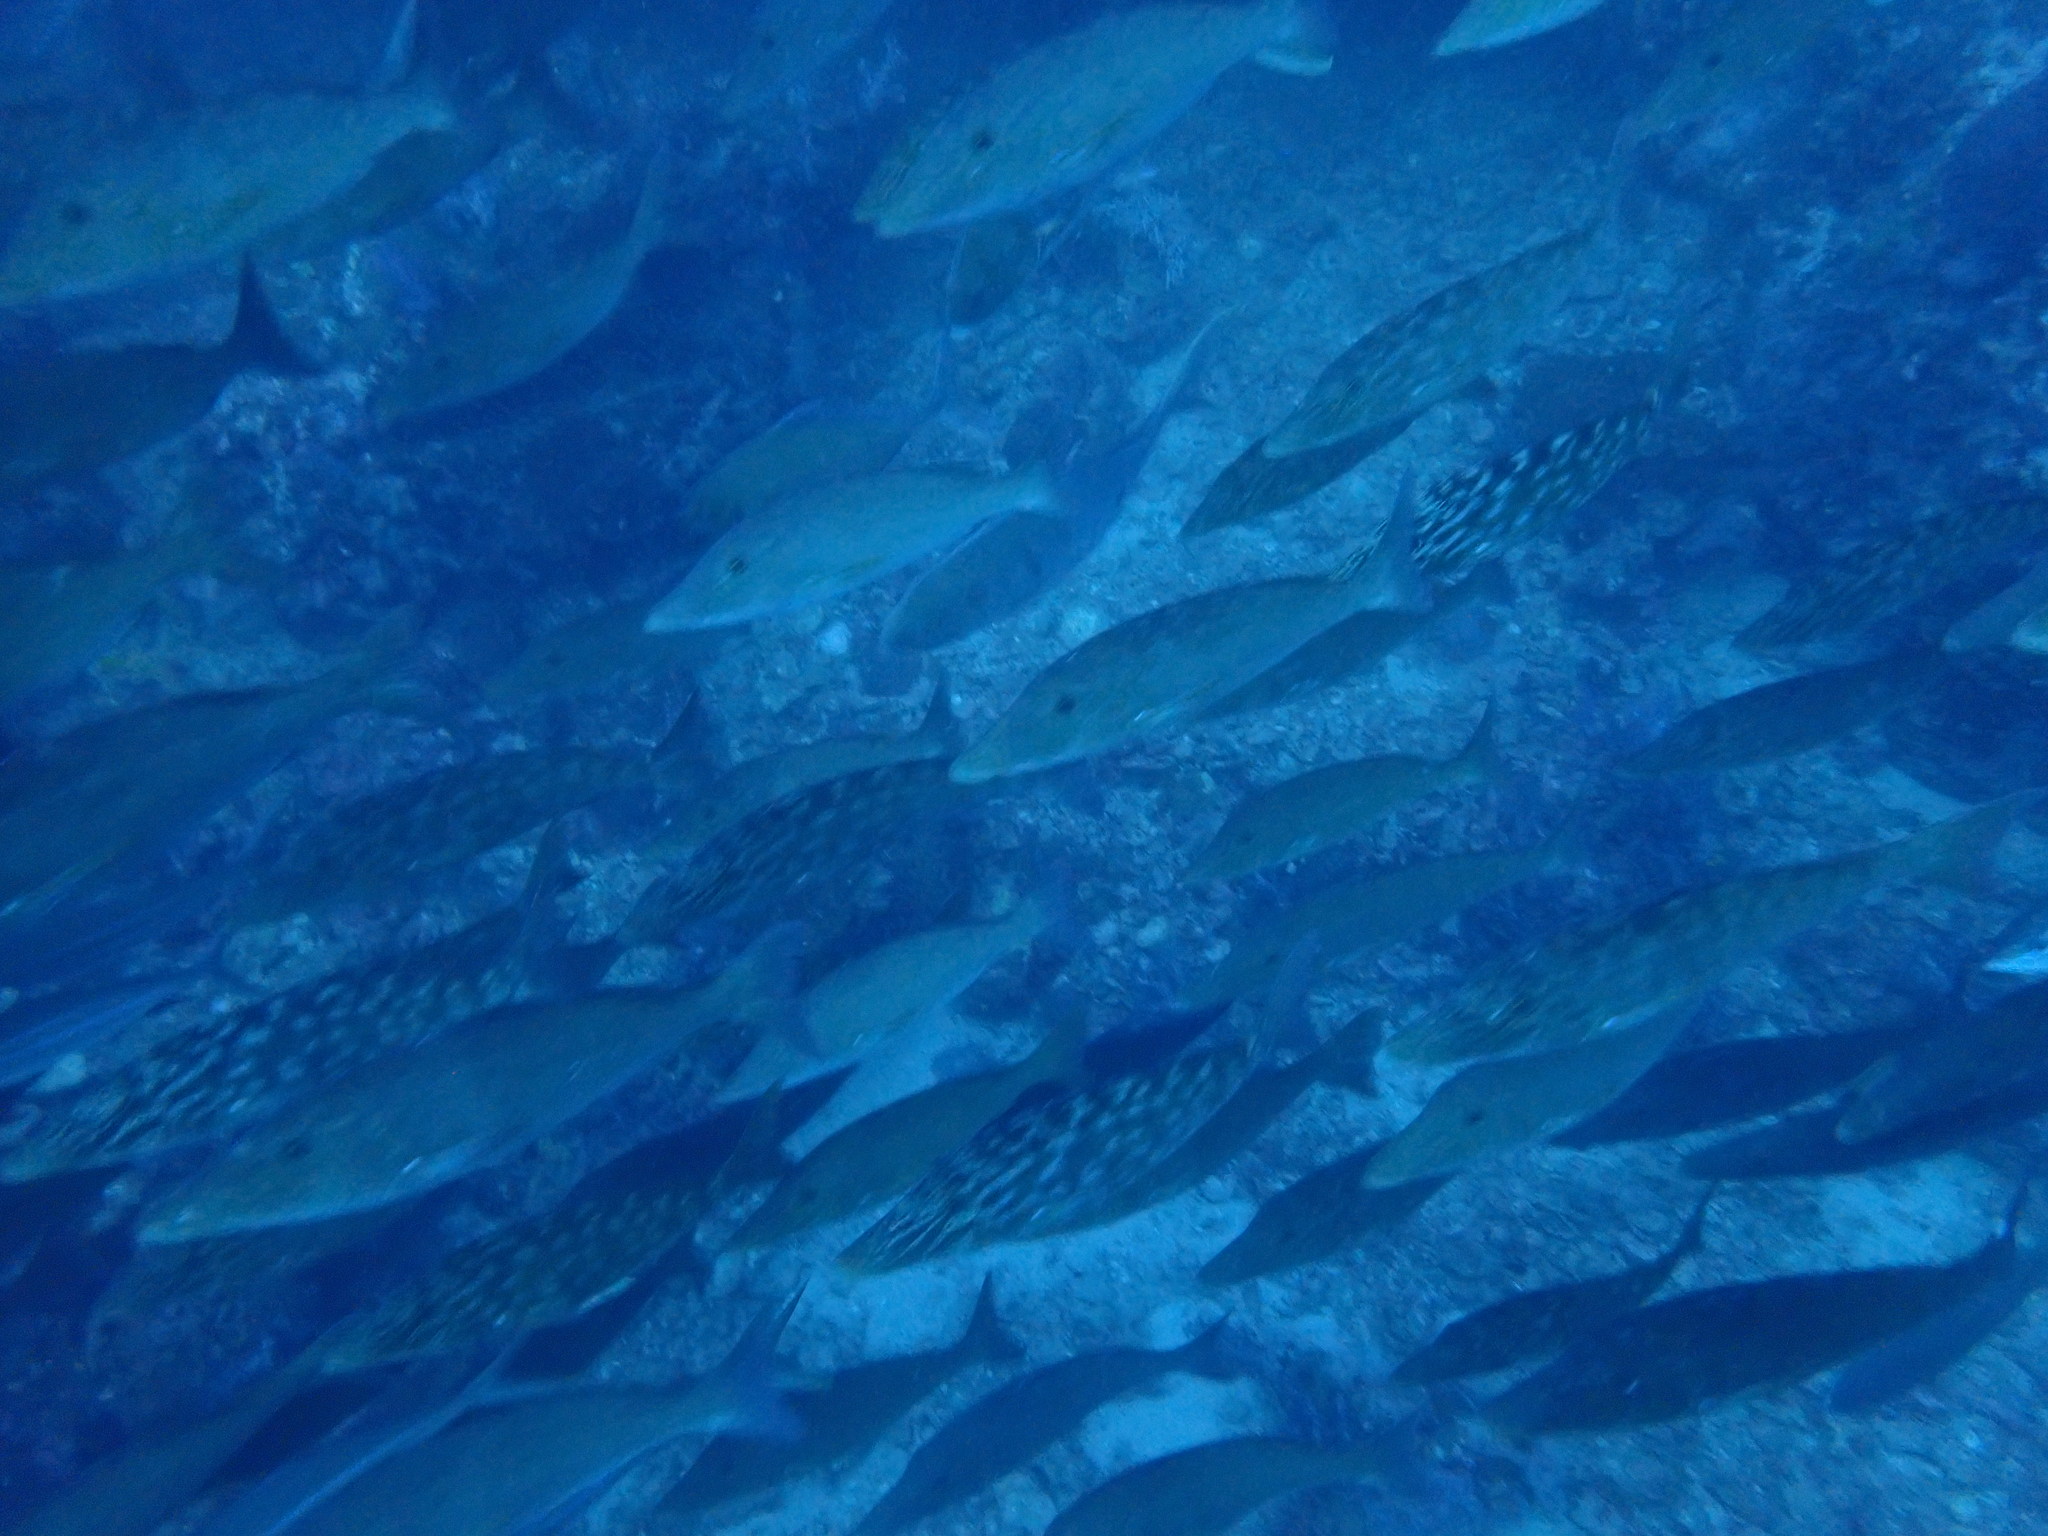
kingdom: Animalia
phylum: Chordata
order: Perciformes
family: Lethrinidae
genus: Lethrinus
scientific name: Lethrinus olivaceus
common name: Longnose emperor
